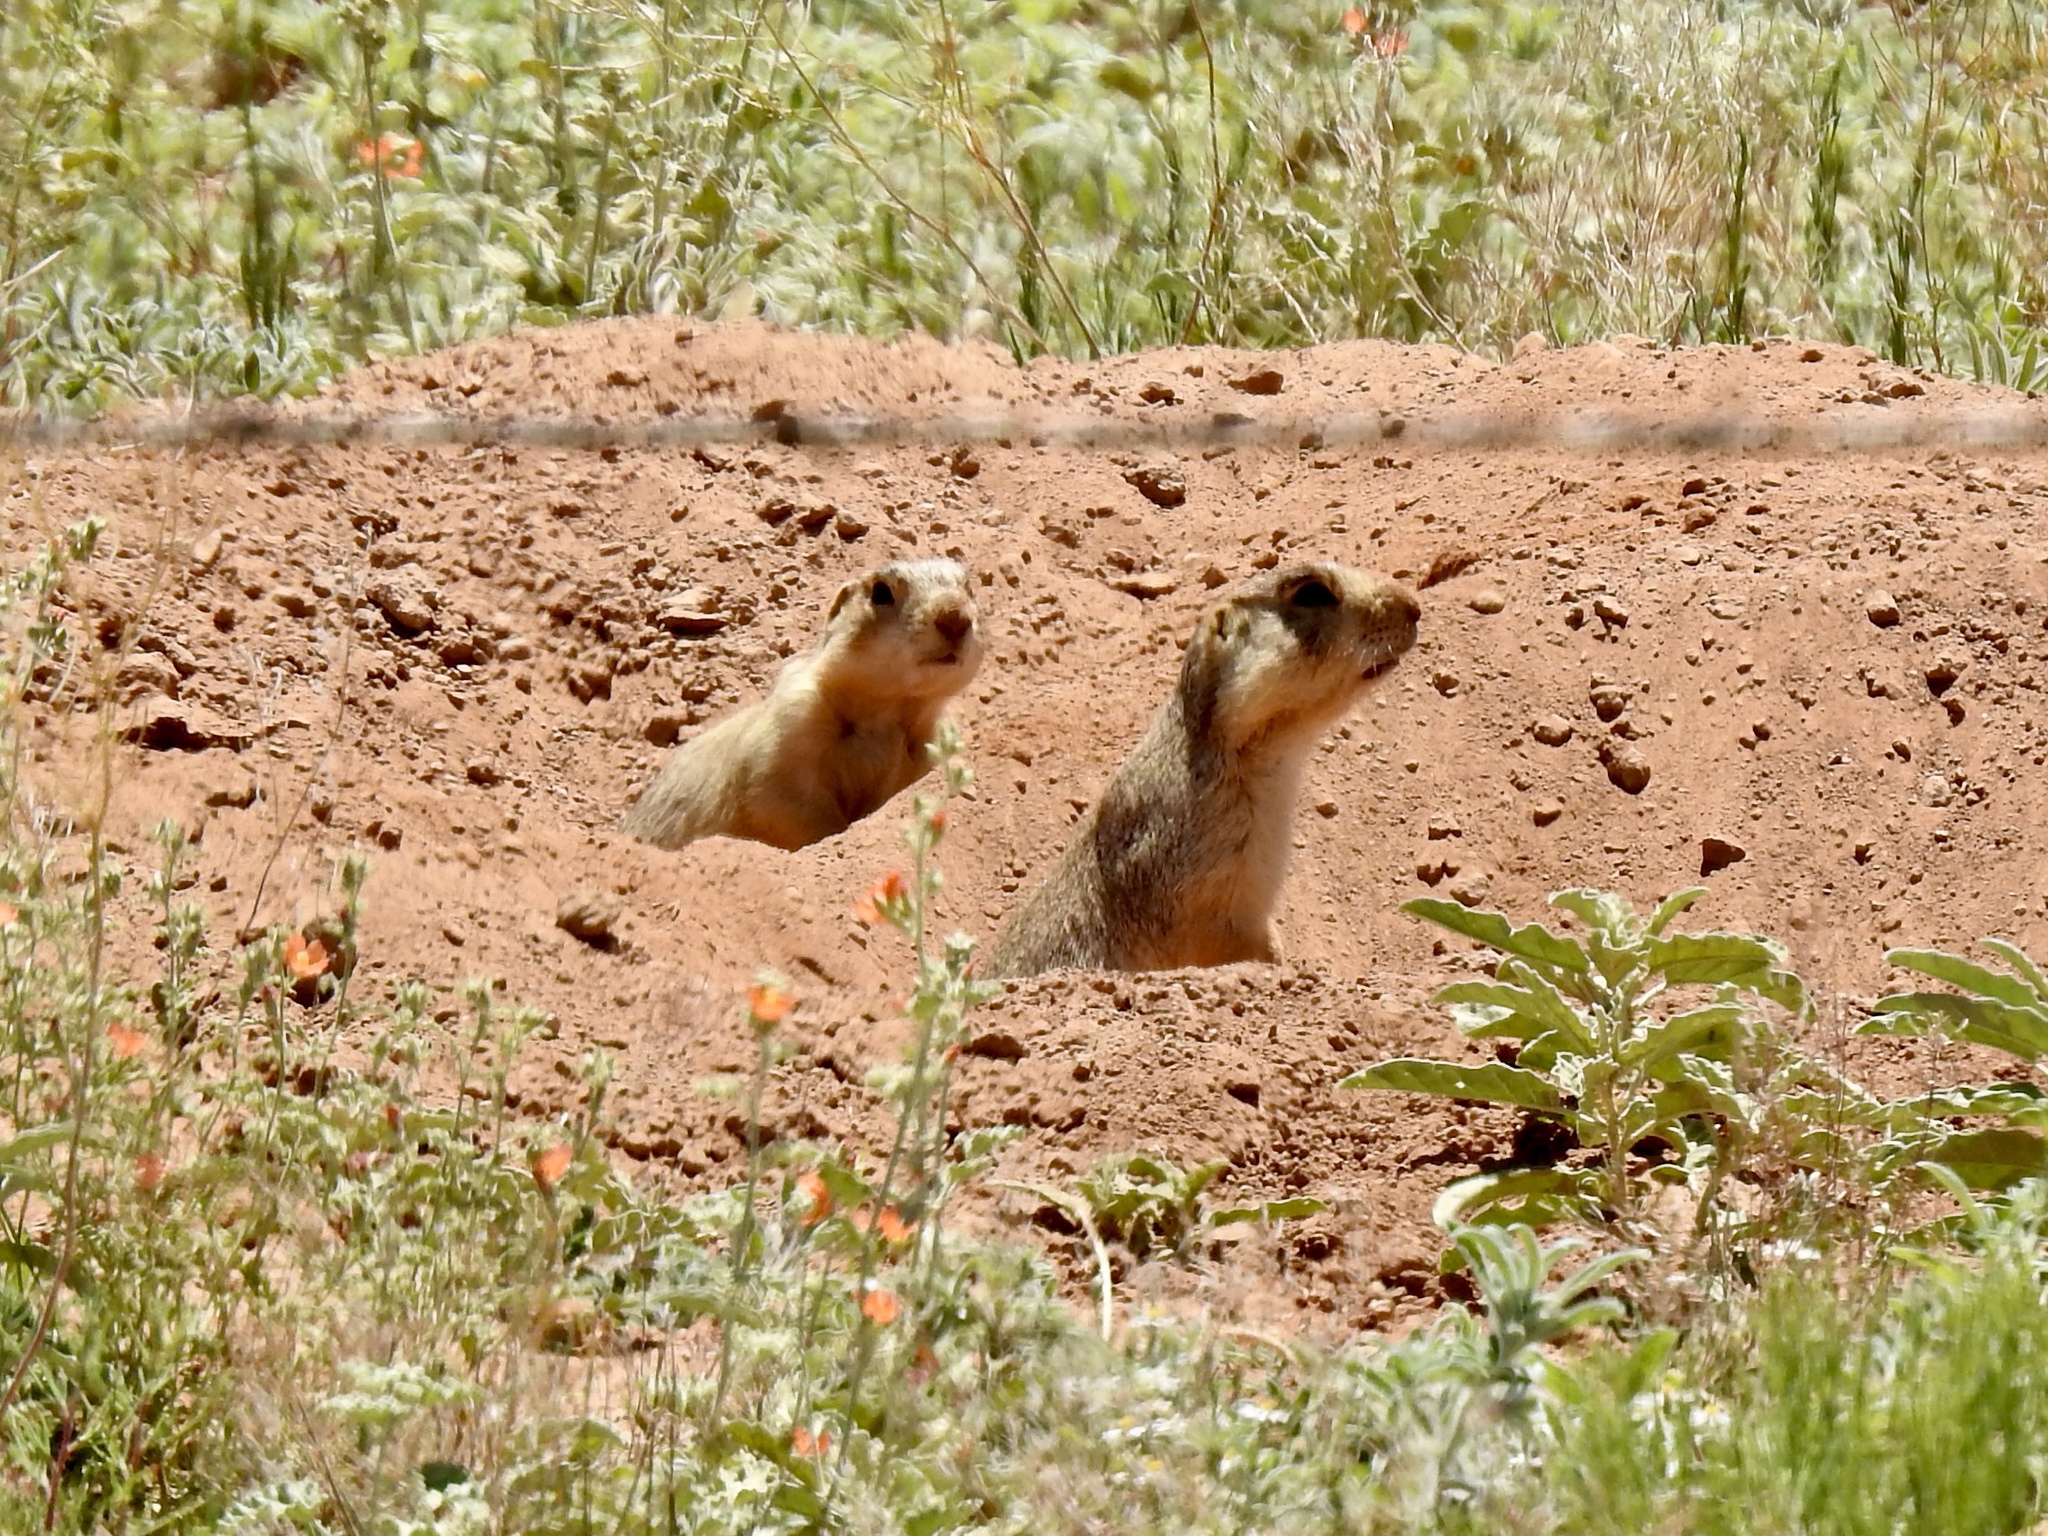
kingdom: Animalia
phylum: Chordata
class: Mammalia
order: Rodentia
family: Sciuridae
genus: Cynomys
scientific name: Cynomys gunnisoni
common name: Gunnison's prairie dog
